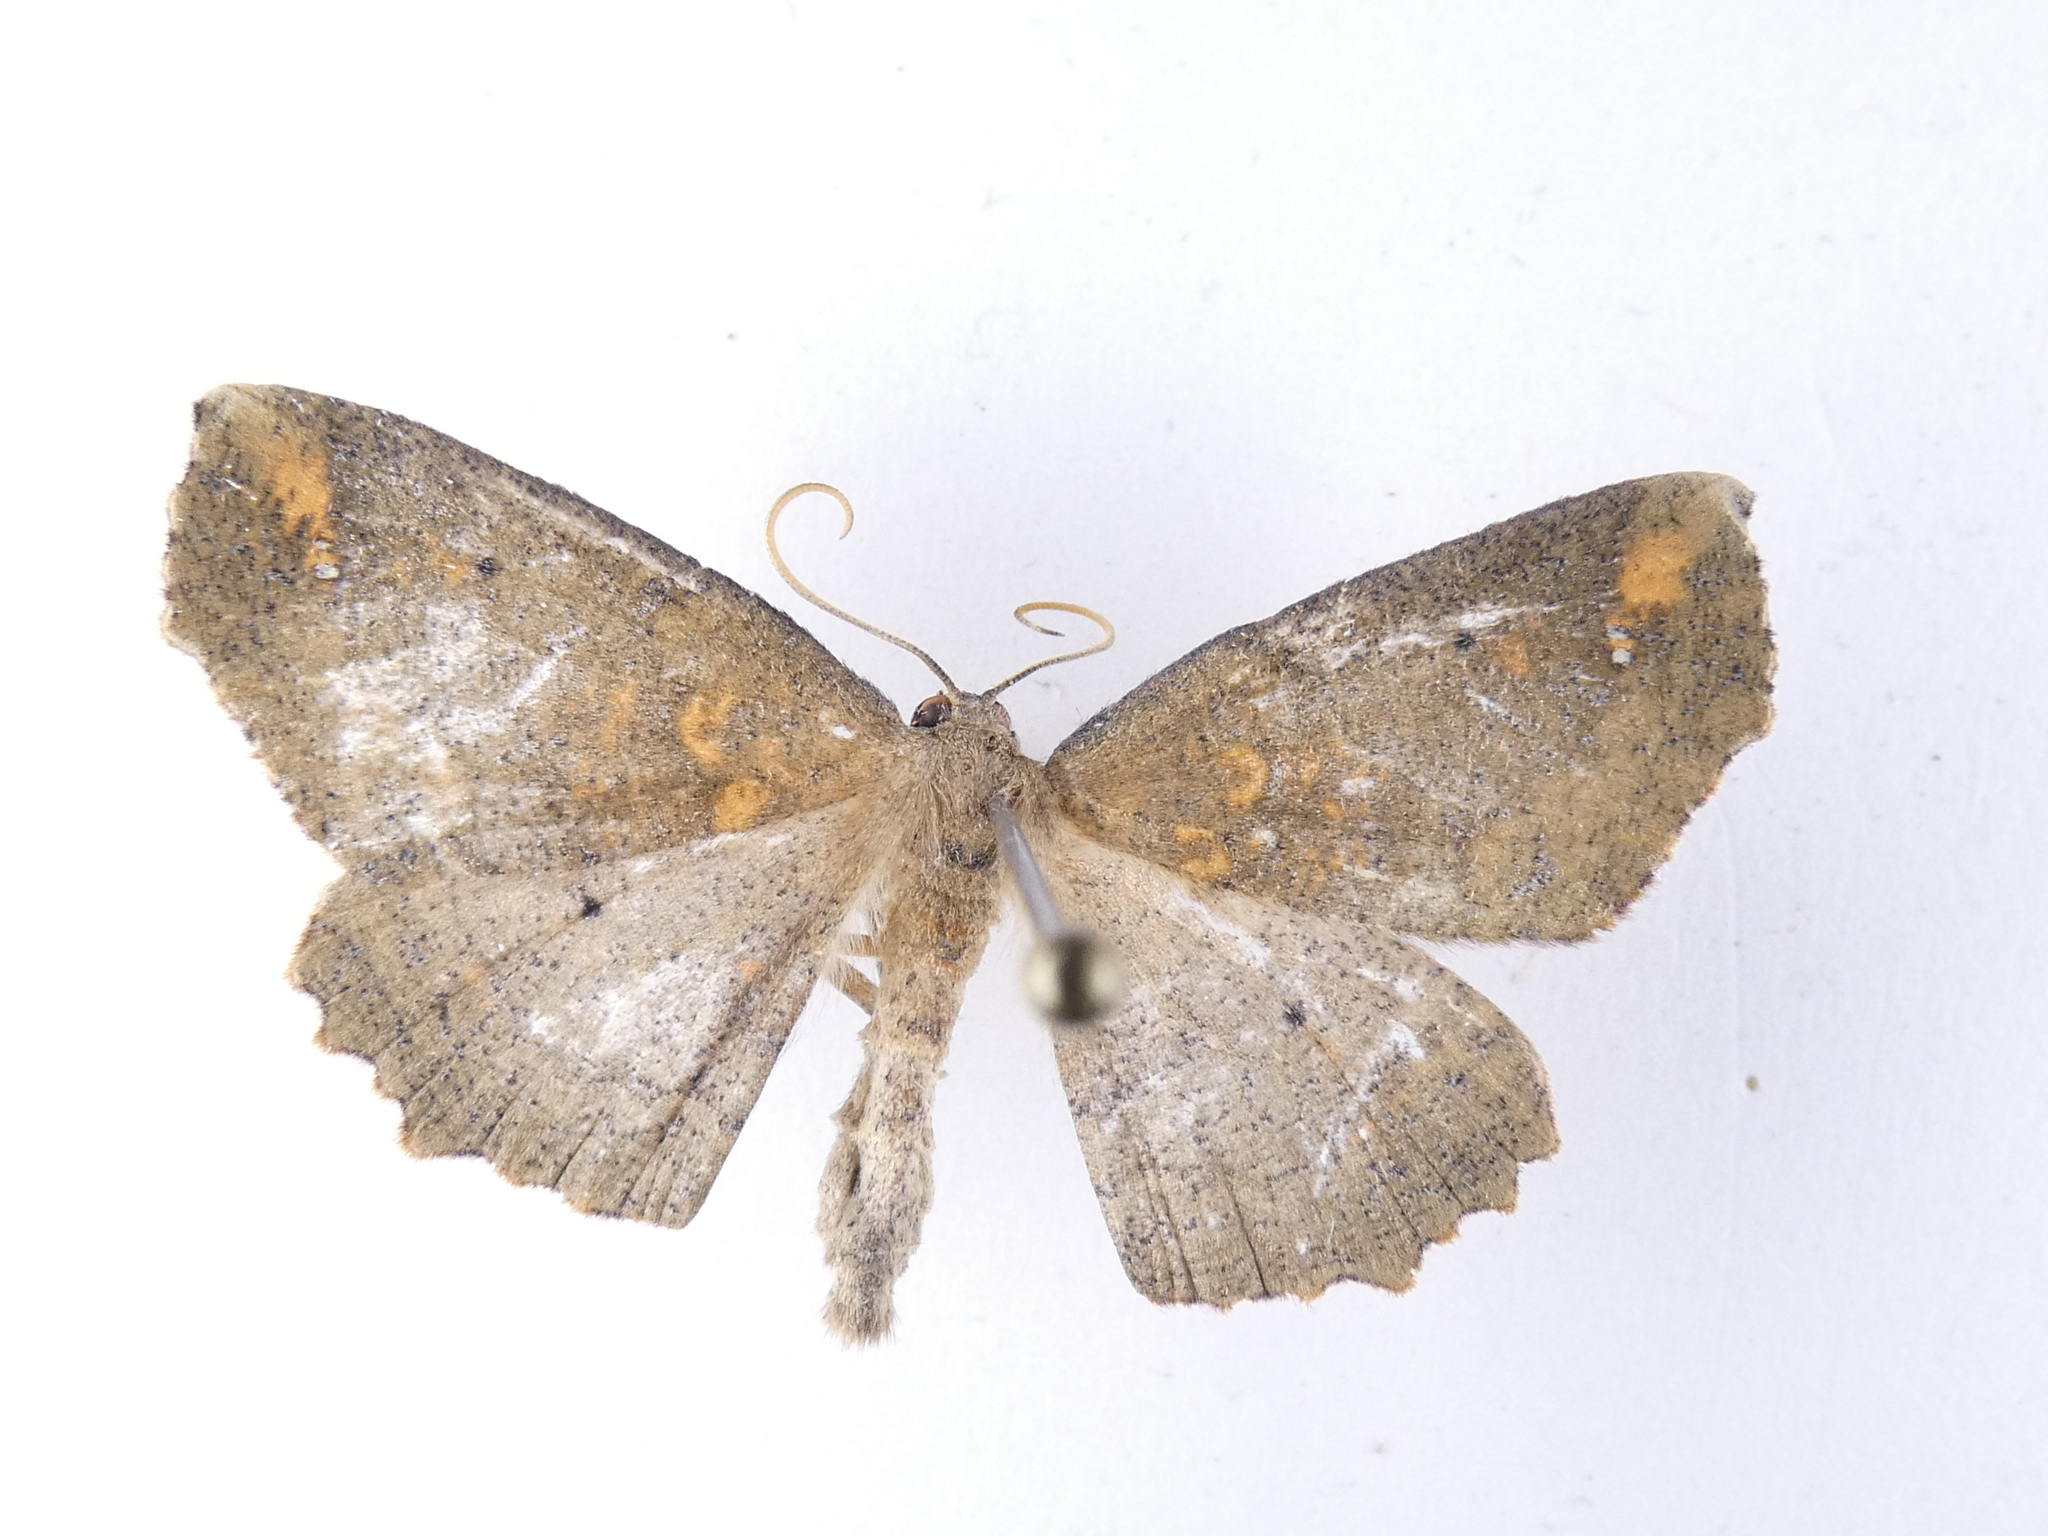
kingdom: Animalia
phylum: Arthropoda
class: Insecta
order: Lepidoptera
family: Geometridae
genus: Xyridacma
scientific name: Xyridacma ustaria
